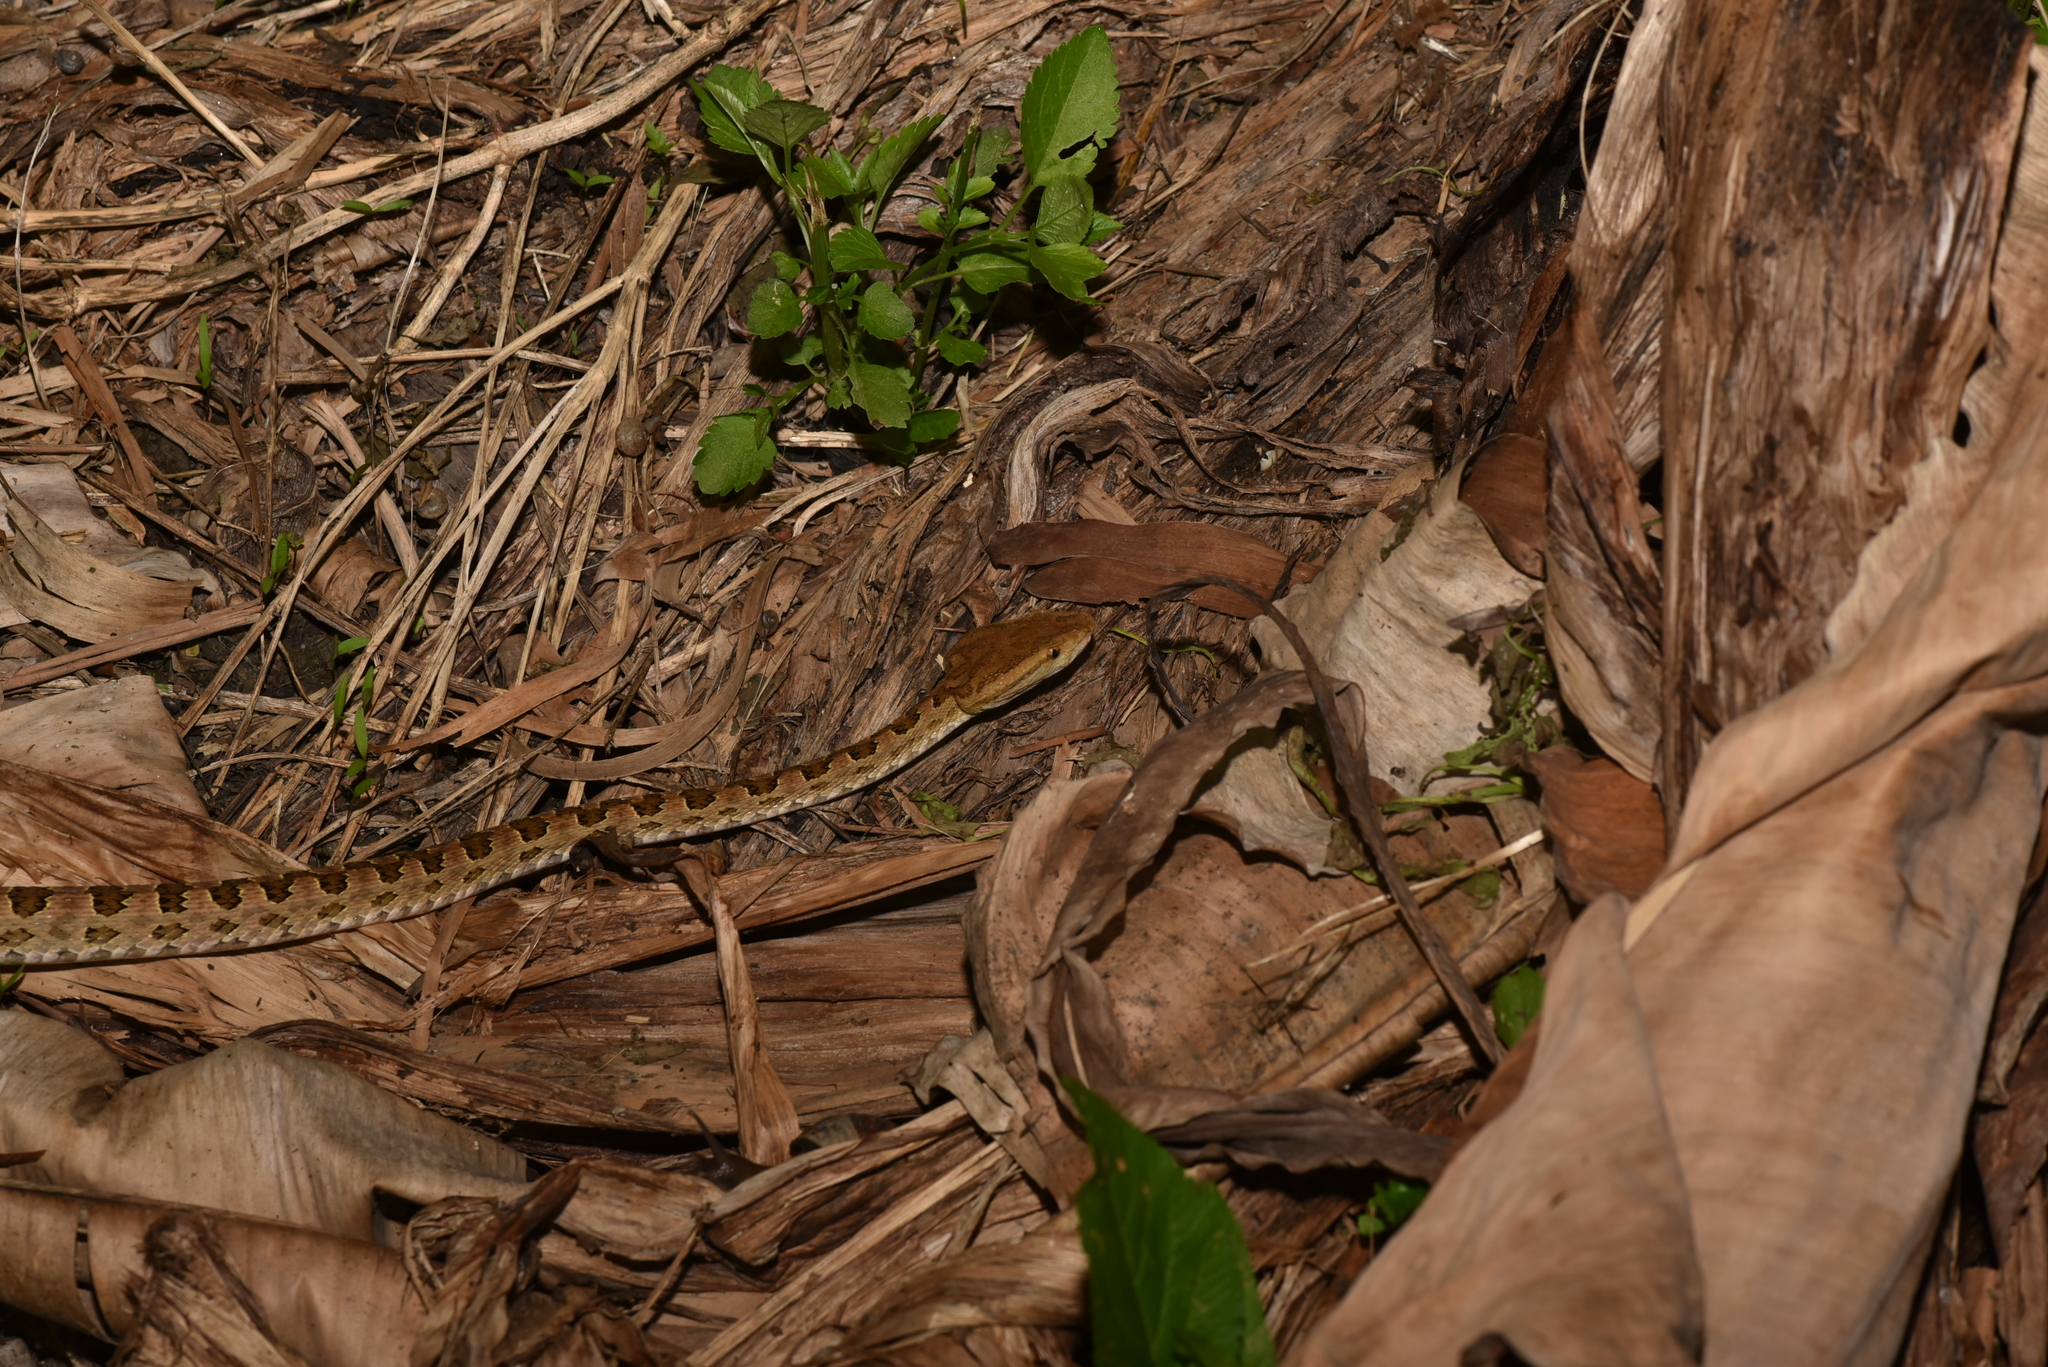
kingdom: Animalia
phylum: Chordata
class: Squamata
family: Viperidae
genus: Protobothrops
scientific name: Protobothrops mucrosquamatus
